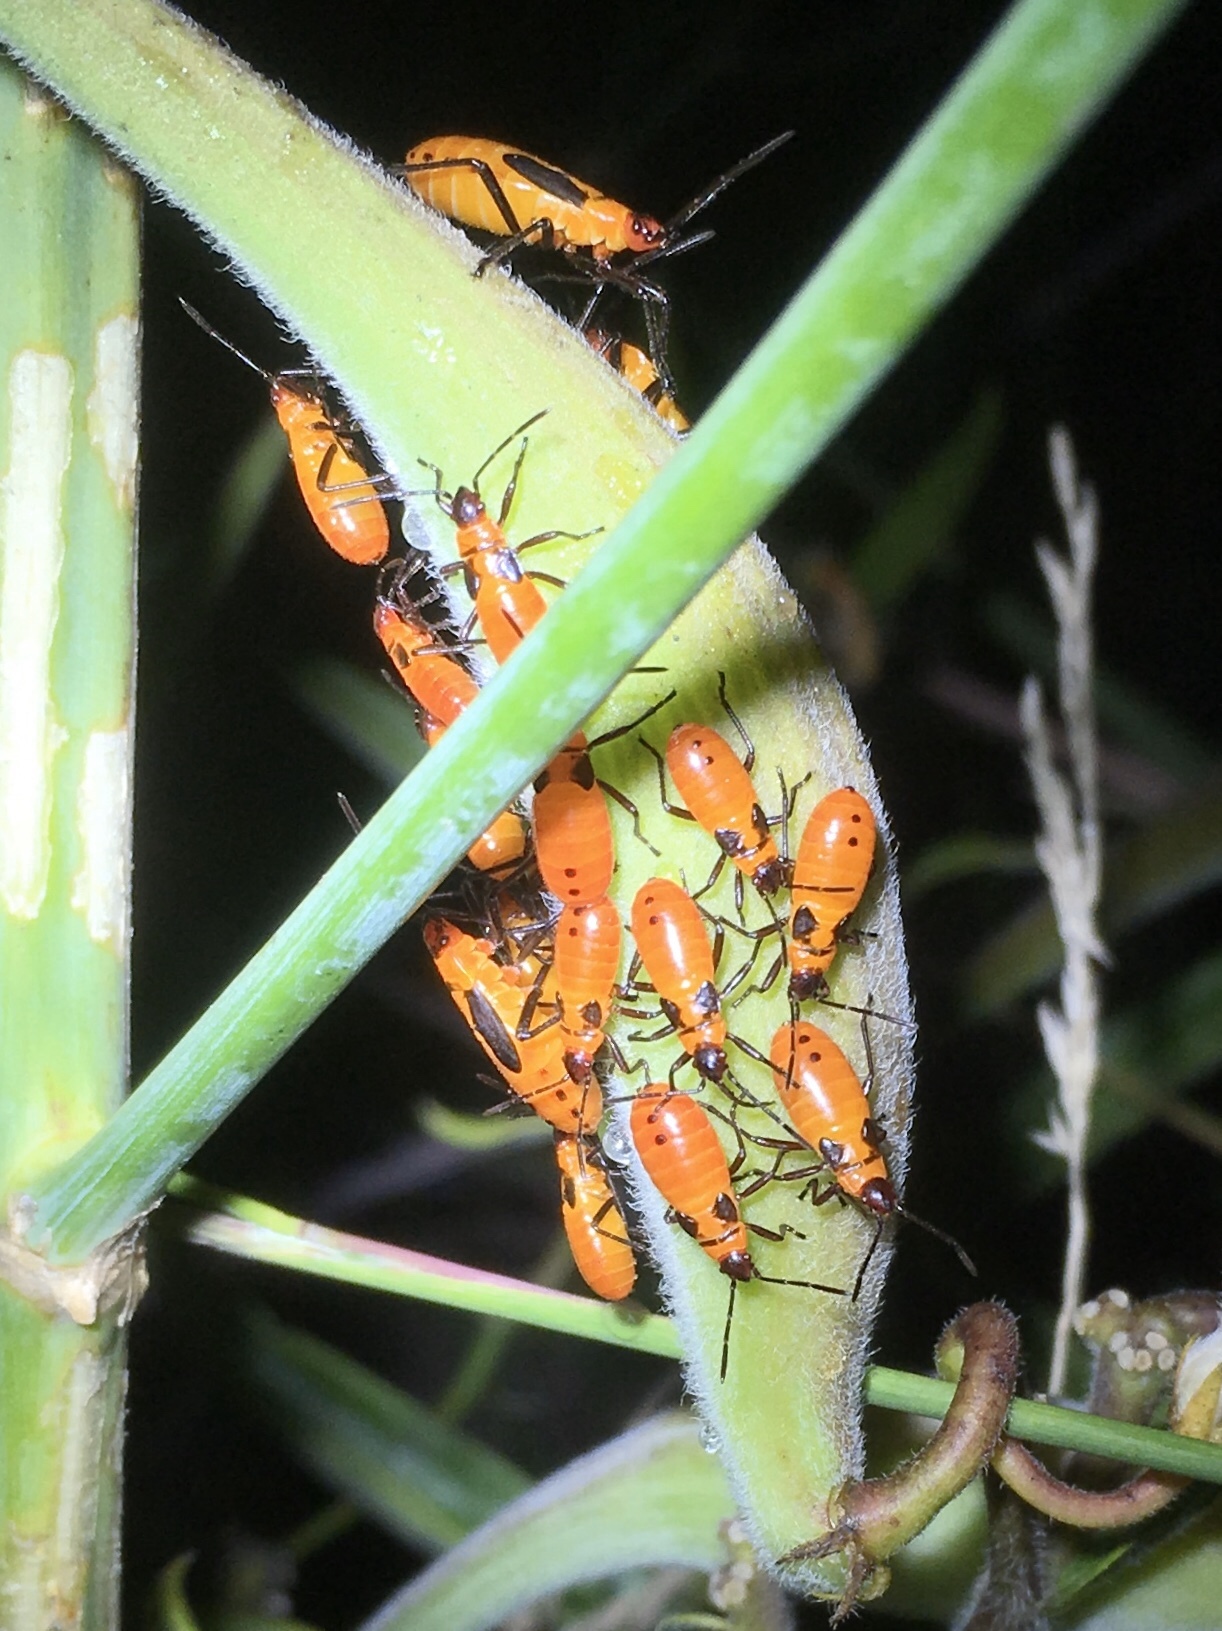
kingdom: Animalia
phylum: Arthropoda
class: Insecta
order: Hemiptera
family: Lygaeidae
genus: Oncopeltus
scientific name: Oncopeltus fasciatus
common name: Large milkweed bug
